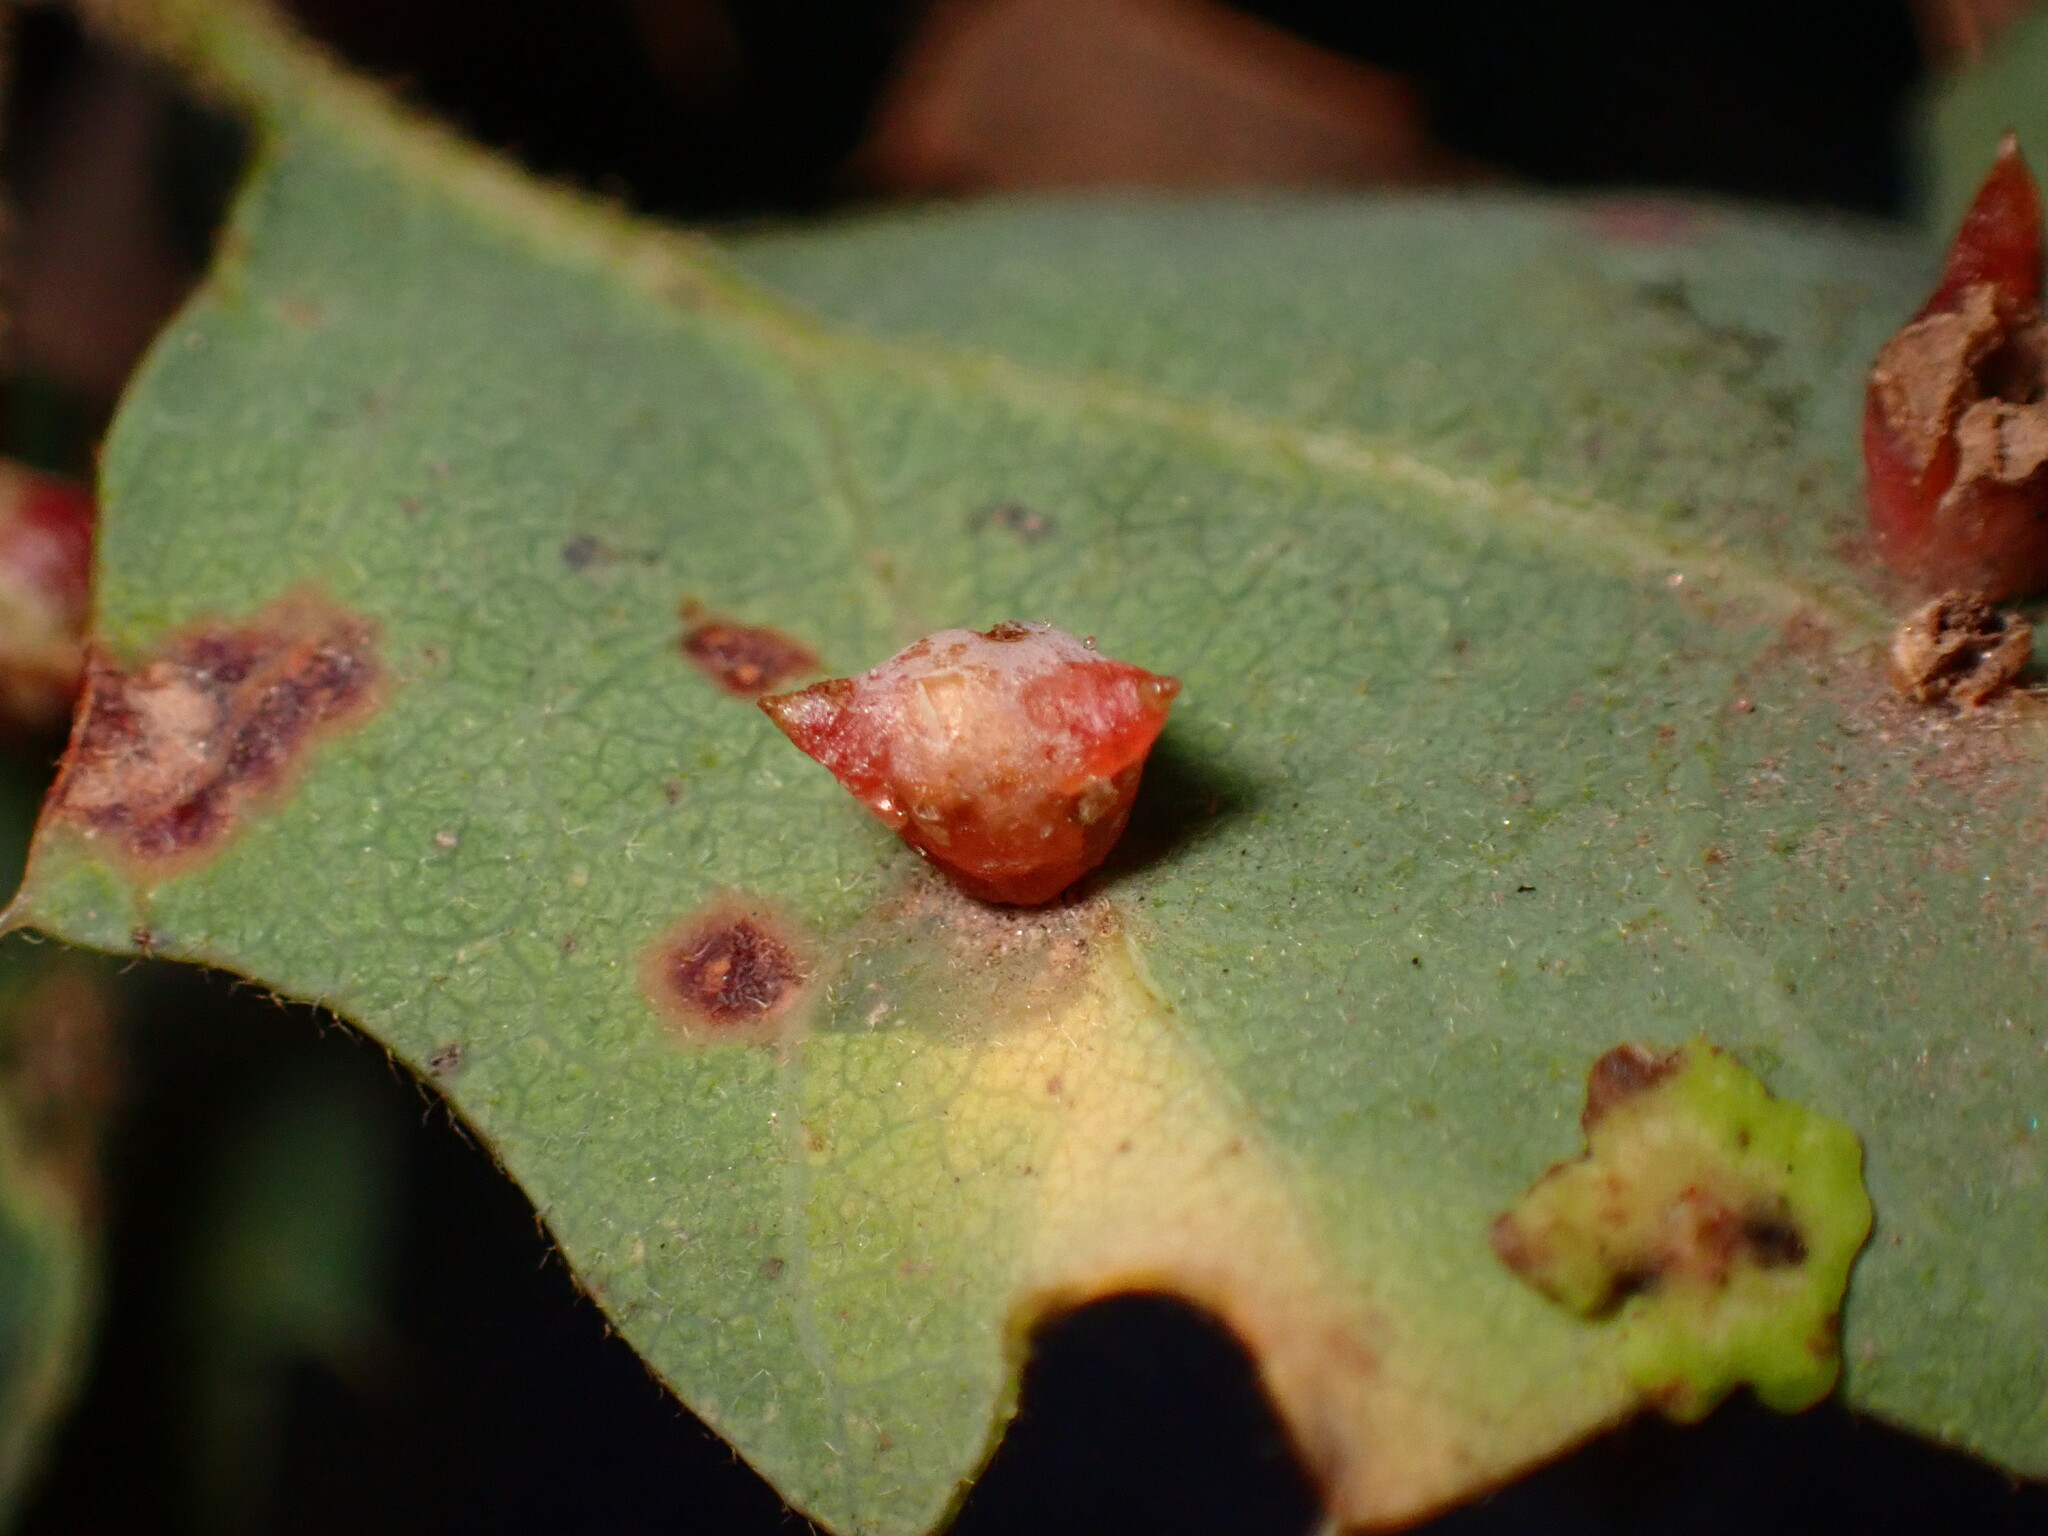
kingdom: Animalia
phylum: Arthropoda
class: Insecta
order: Hymenoptera
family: Cynipidae
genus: Cynips
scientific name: Cynips douglasi
